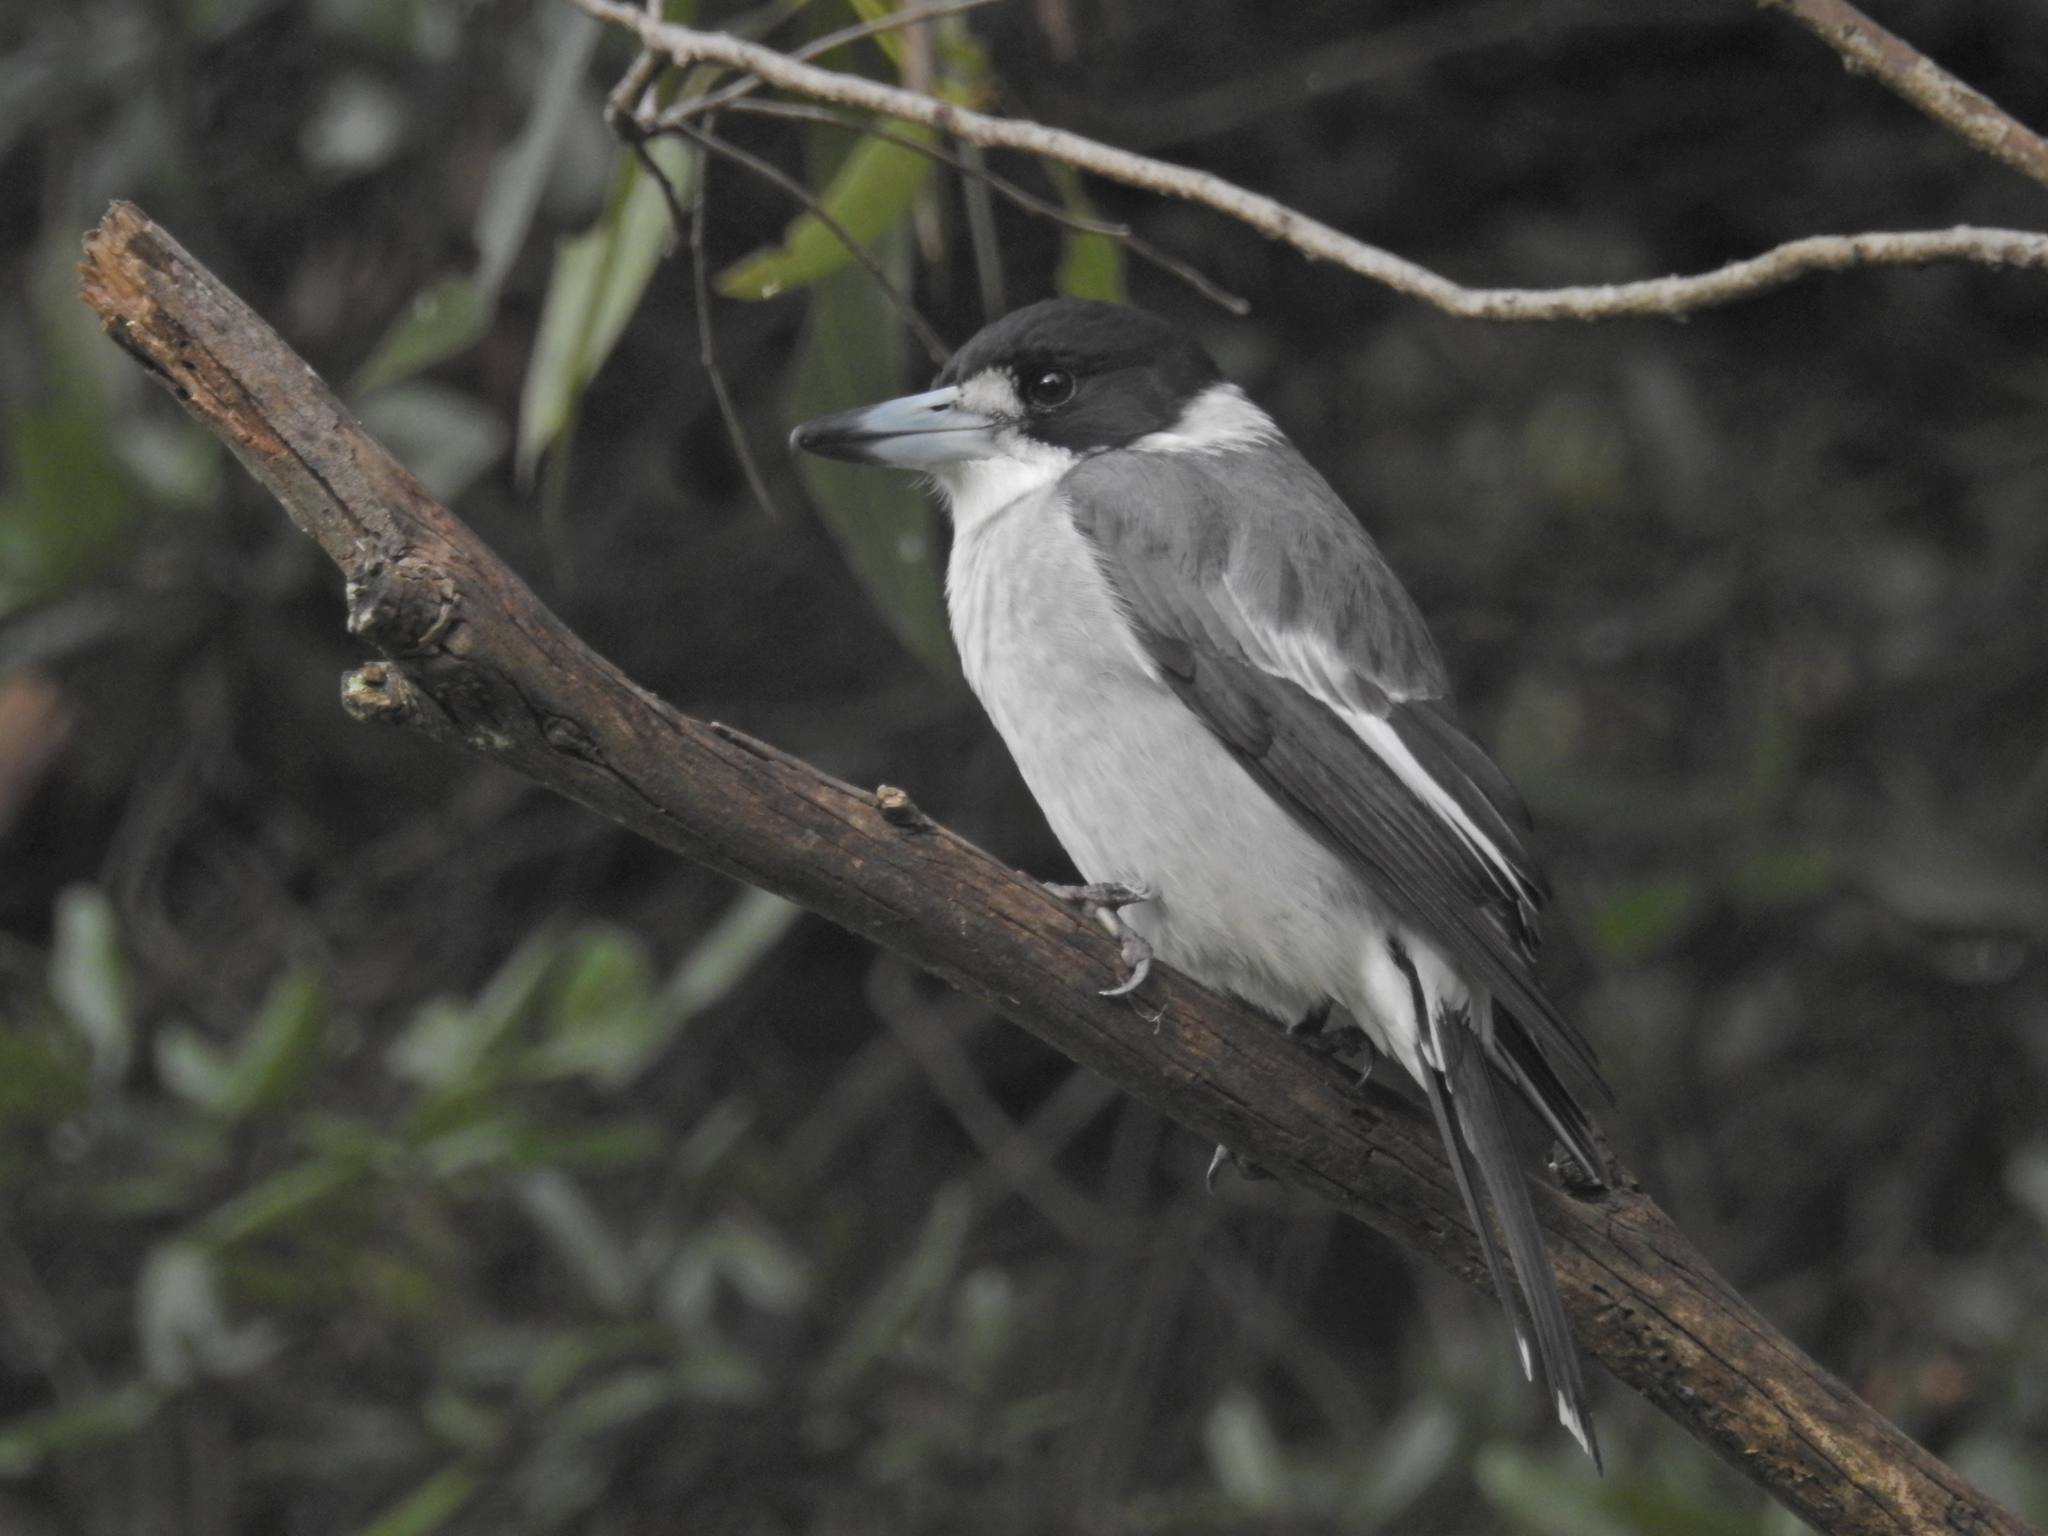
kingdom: Animalia
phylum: Chordata
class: Aves
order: Passeriformes
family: Cracticidae
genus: Cracticus
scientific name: Cracticus torquatus
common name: Grey butcherbird
